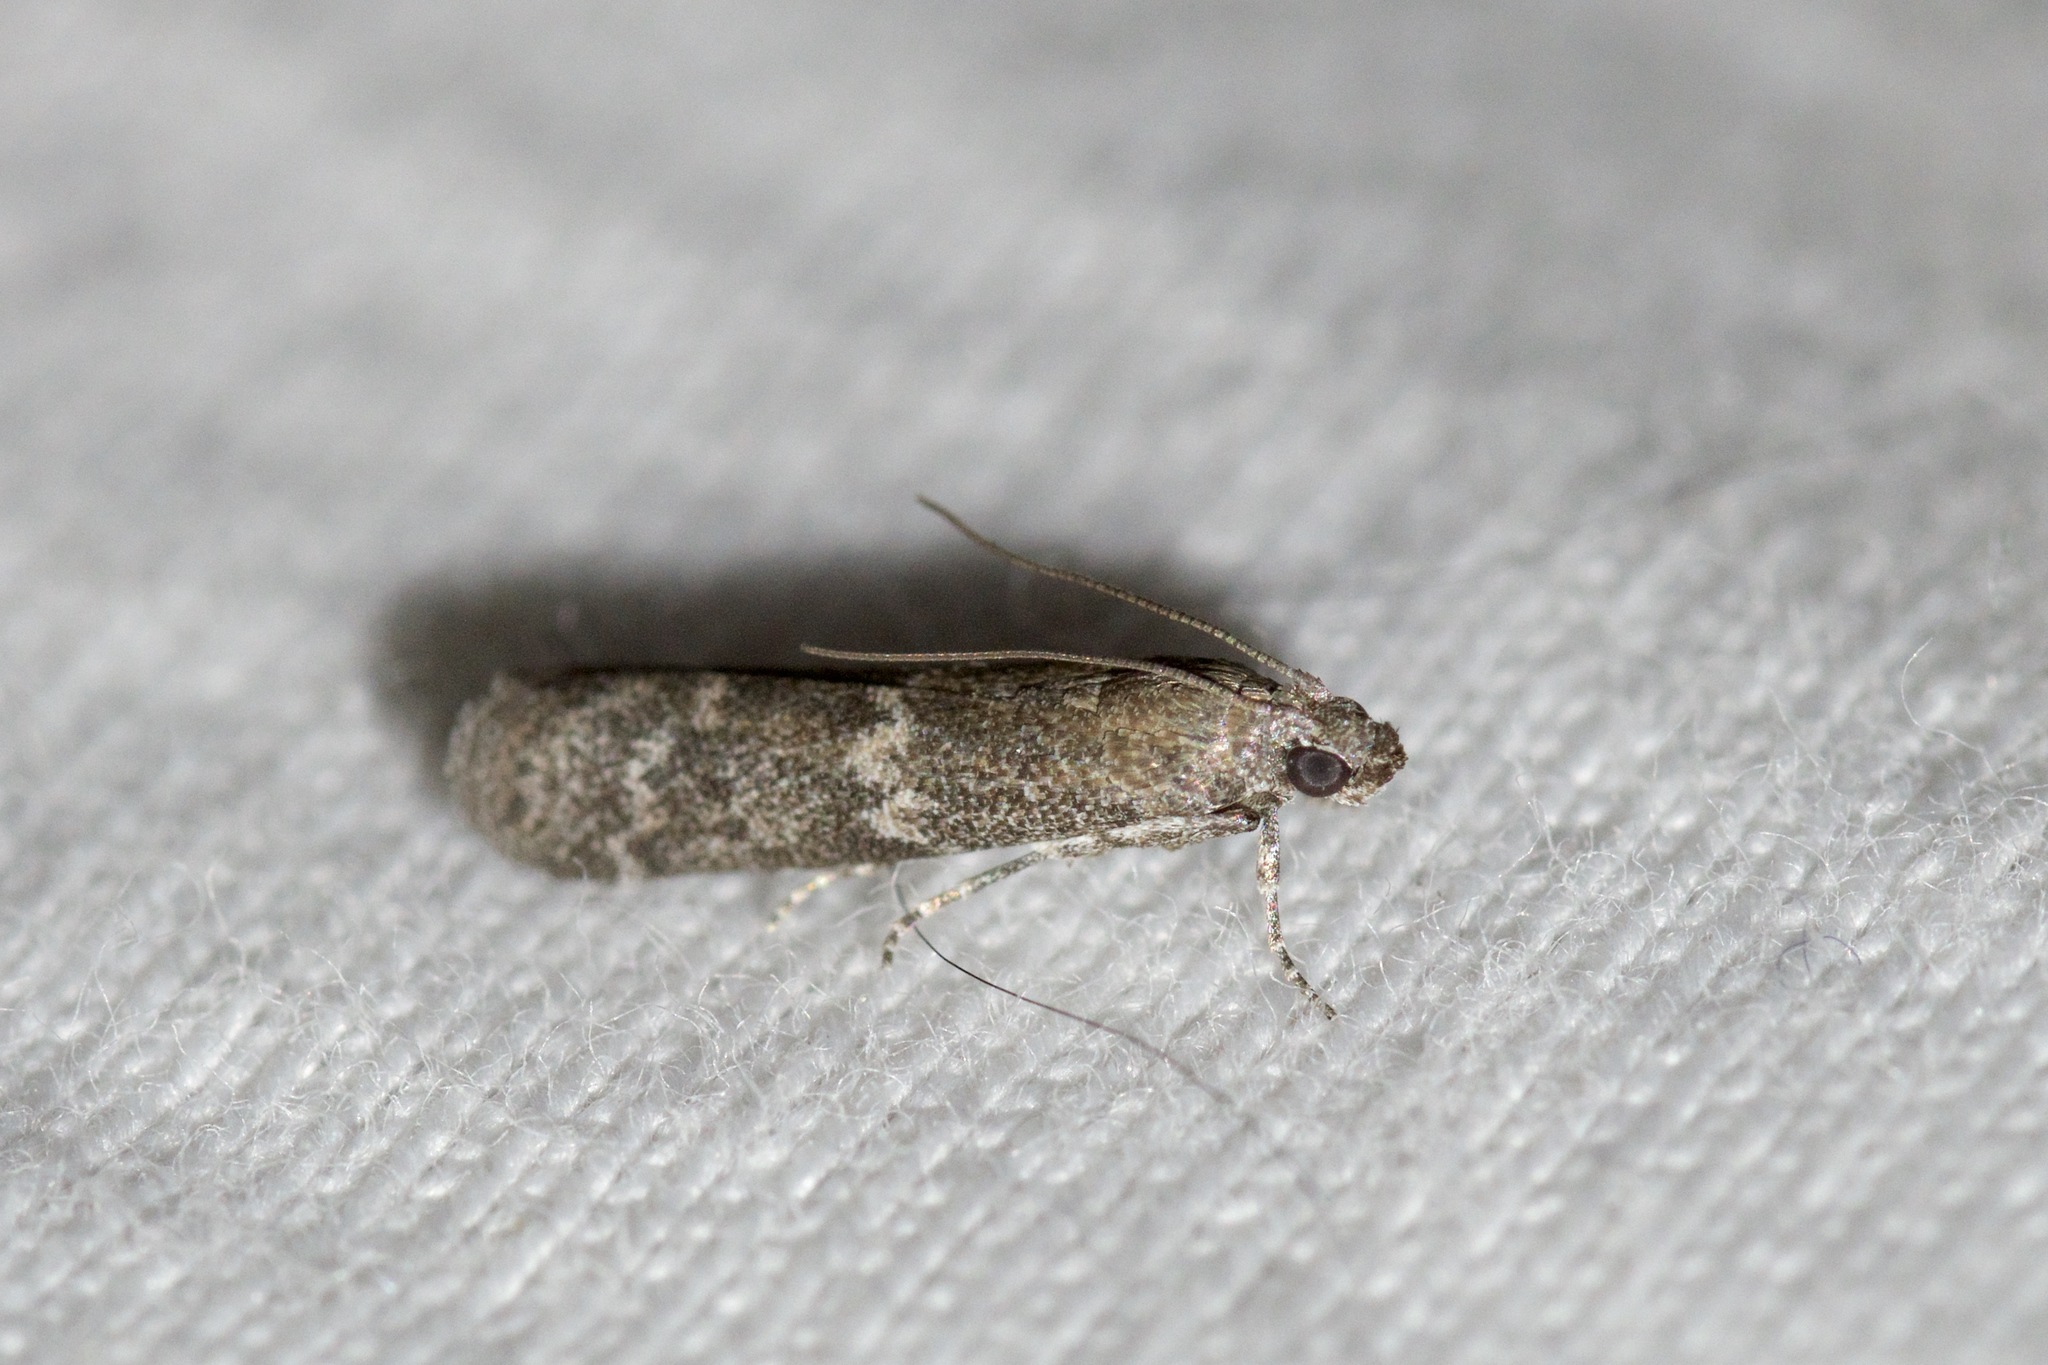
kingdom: Animalia
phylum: Arthropoda
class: Insecta
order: Lepidoptera
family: Pyralidae
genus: Eurythmia
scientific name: Eurythmia angulella
